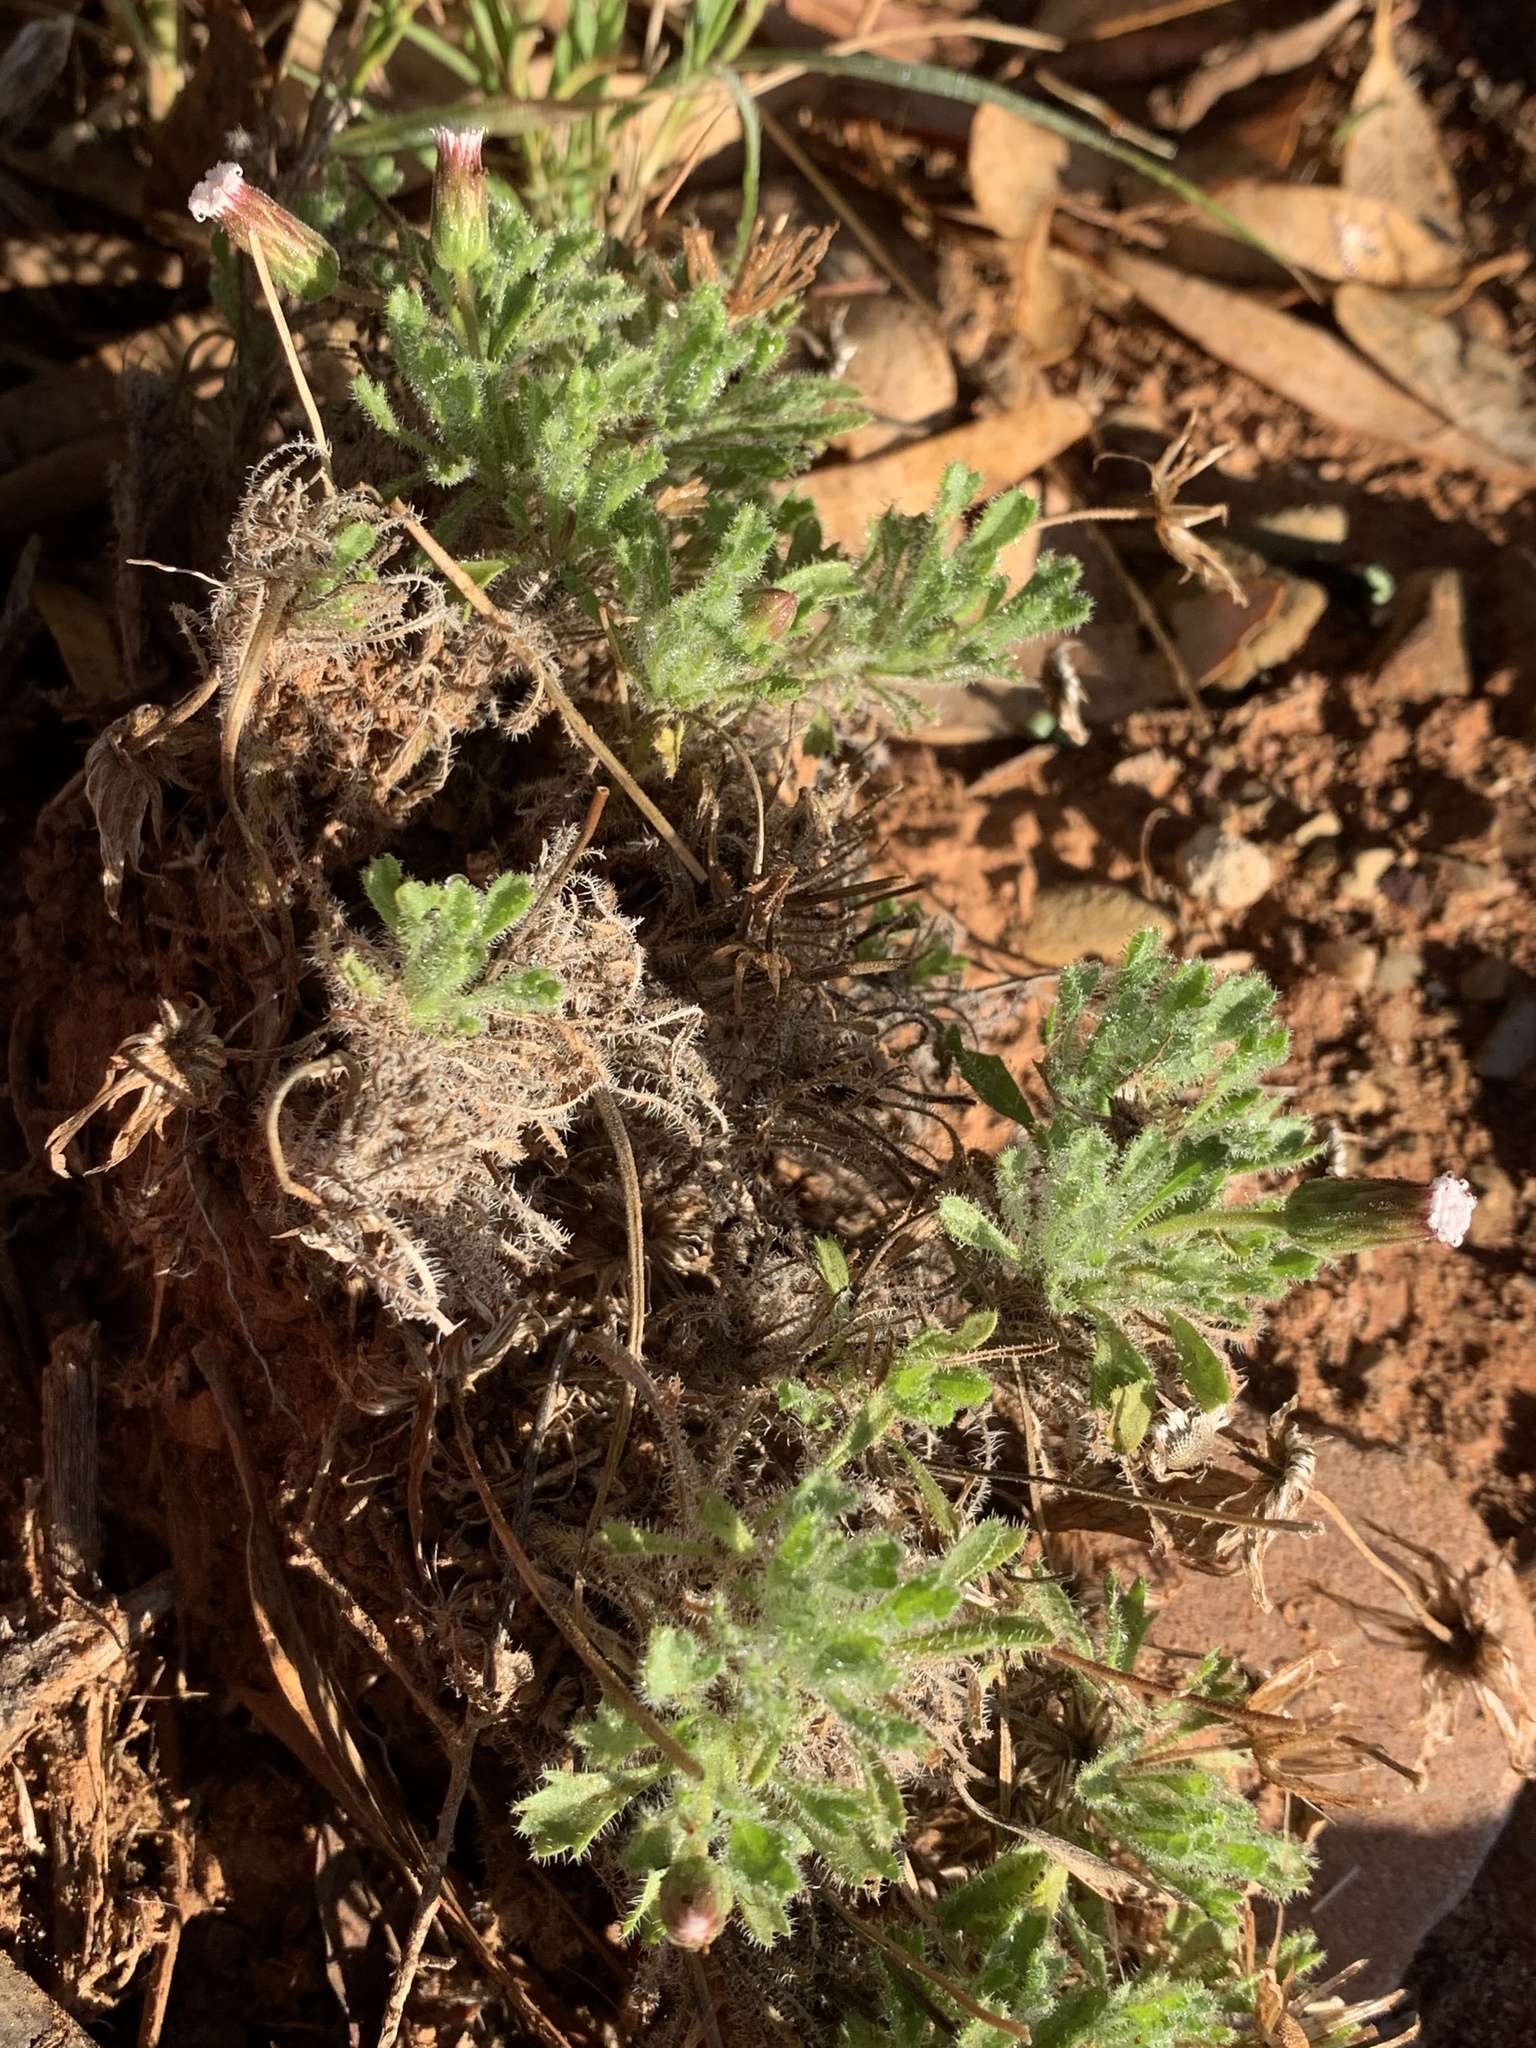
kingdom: Plantae
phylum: Tracheophyta
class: Magnoliopsida
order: Asterales
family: Asteraceae
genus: Ixiochlamys
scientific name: Ixiochlamys cuneifolia
